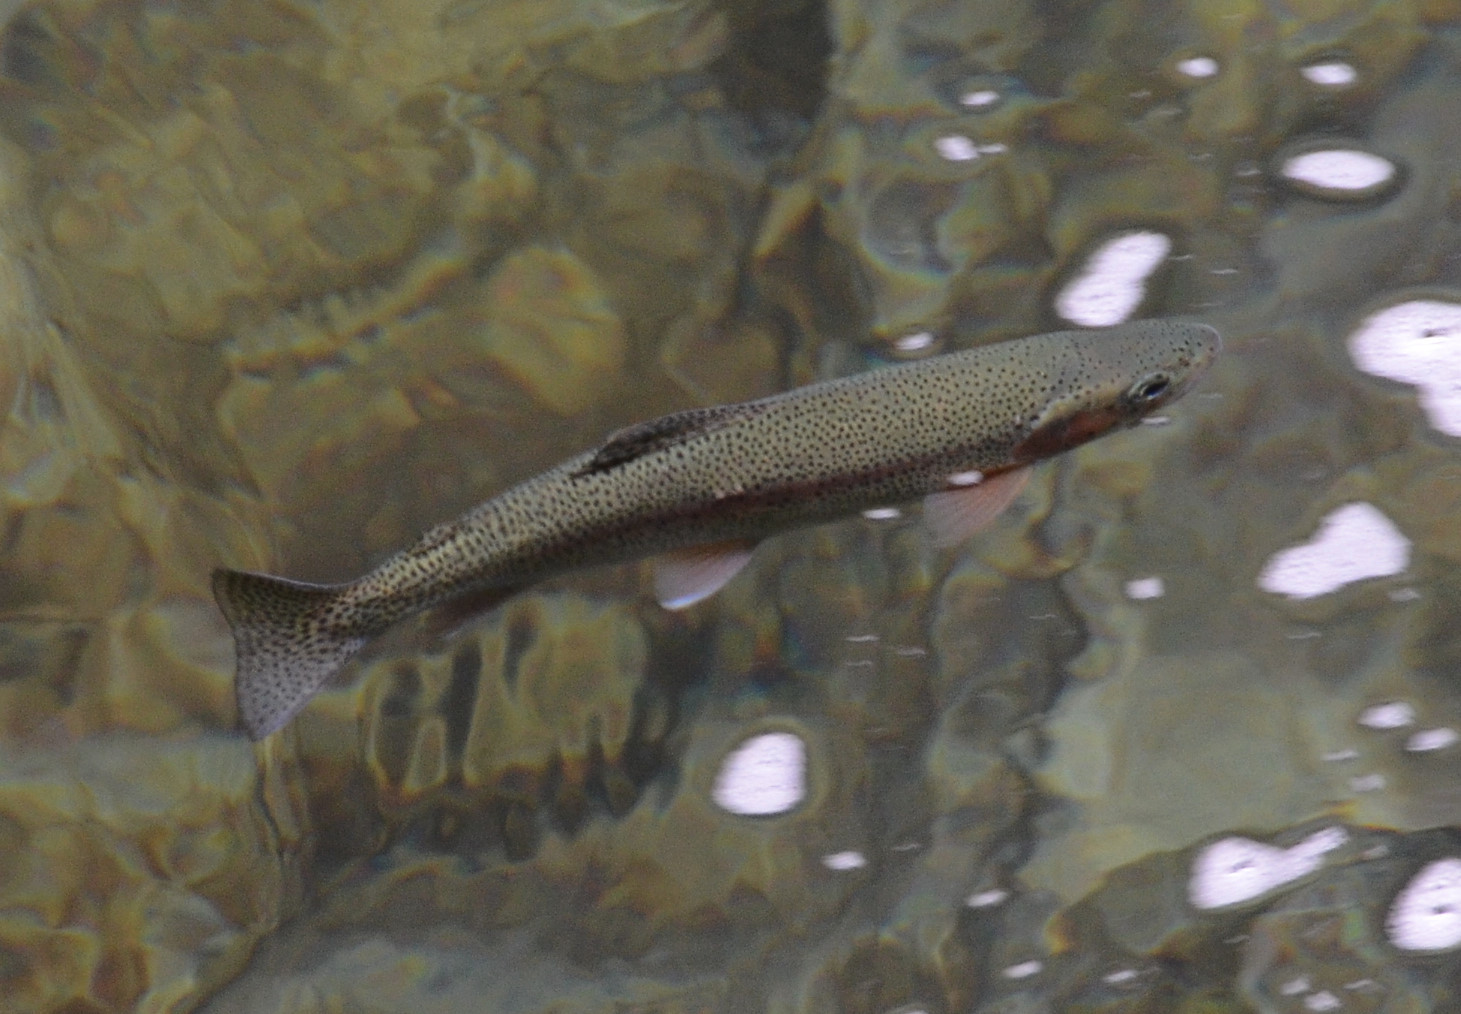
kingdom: Animalia
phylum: Chordata
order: Salmoniformes
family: Salmonidae
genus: Oncorhynchus
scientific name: Oncorhynchus mykiss
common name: Rainbow trout
